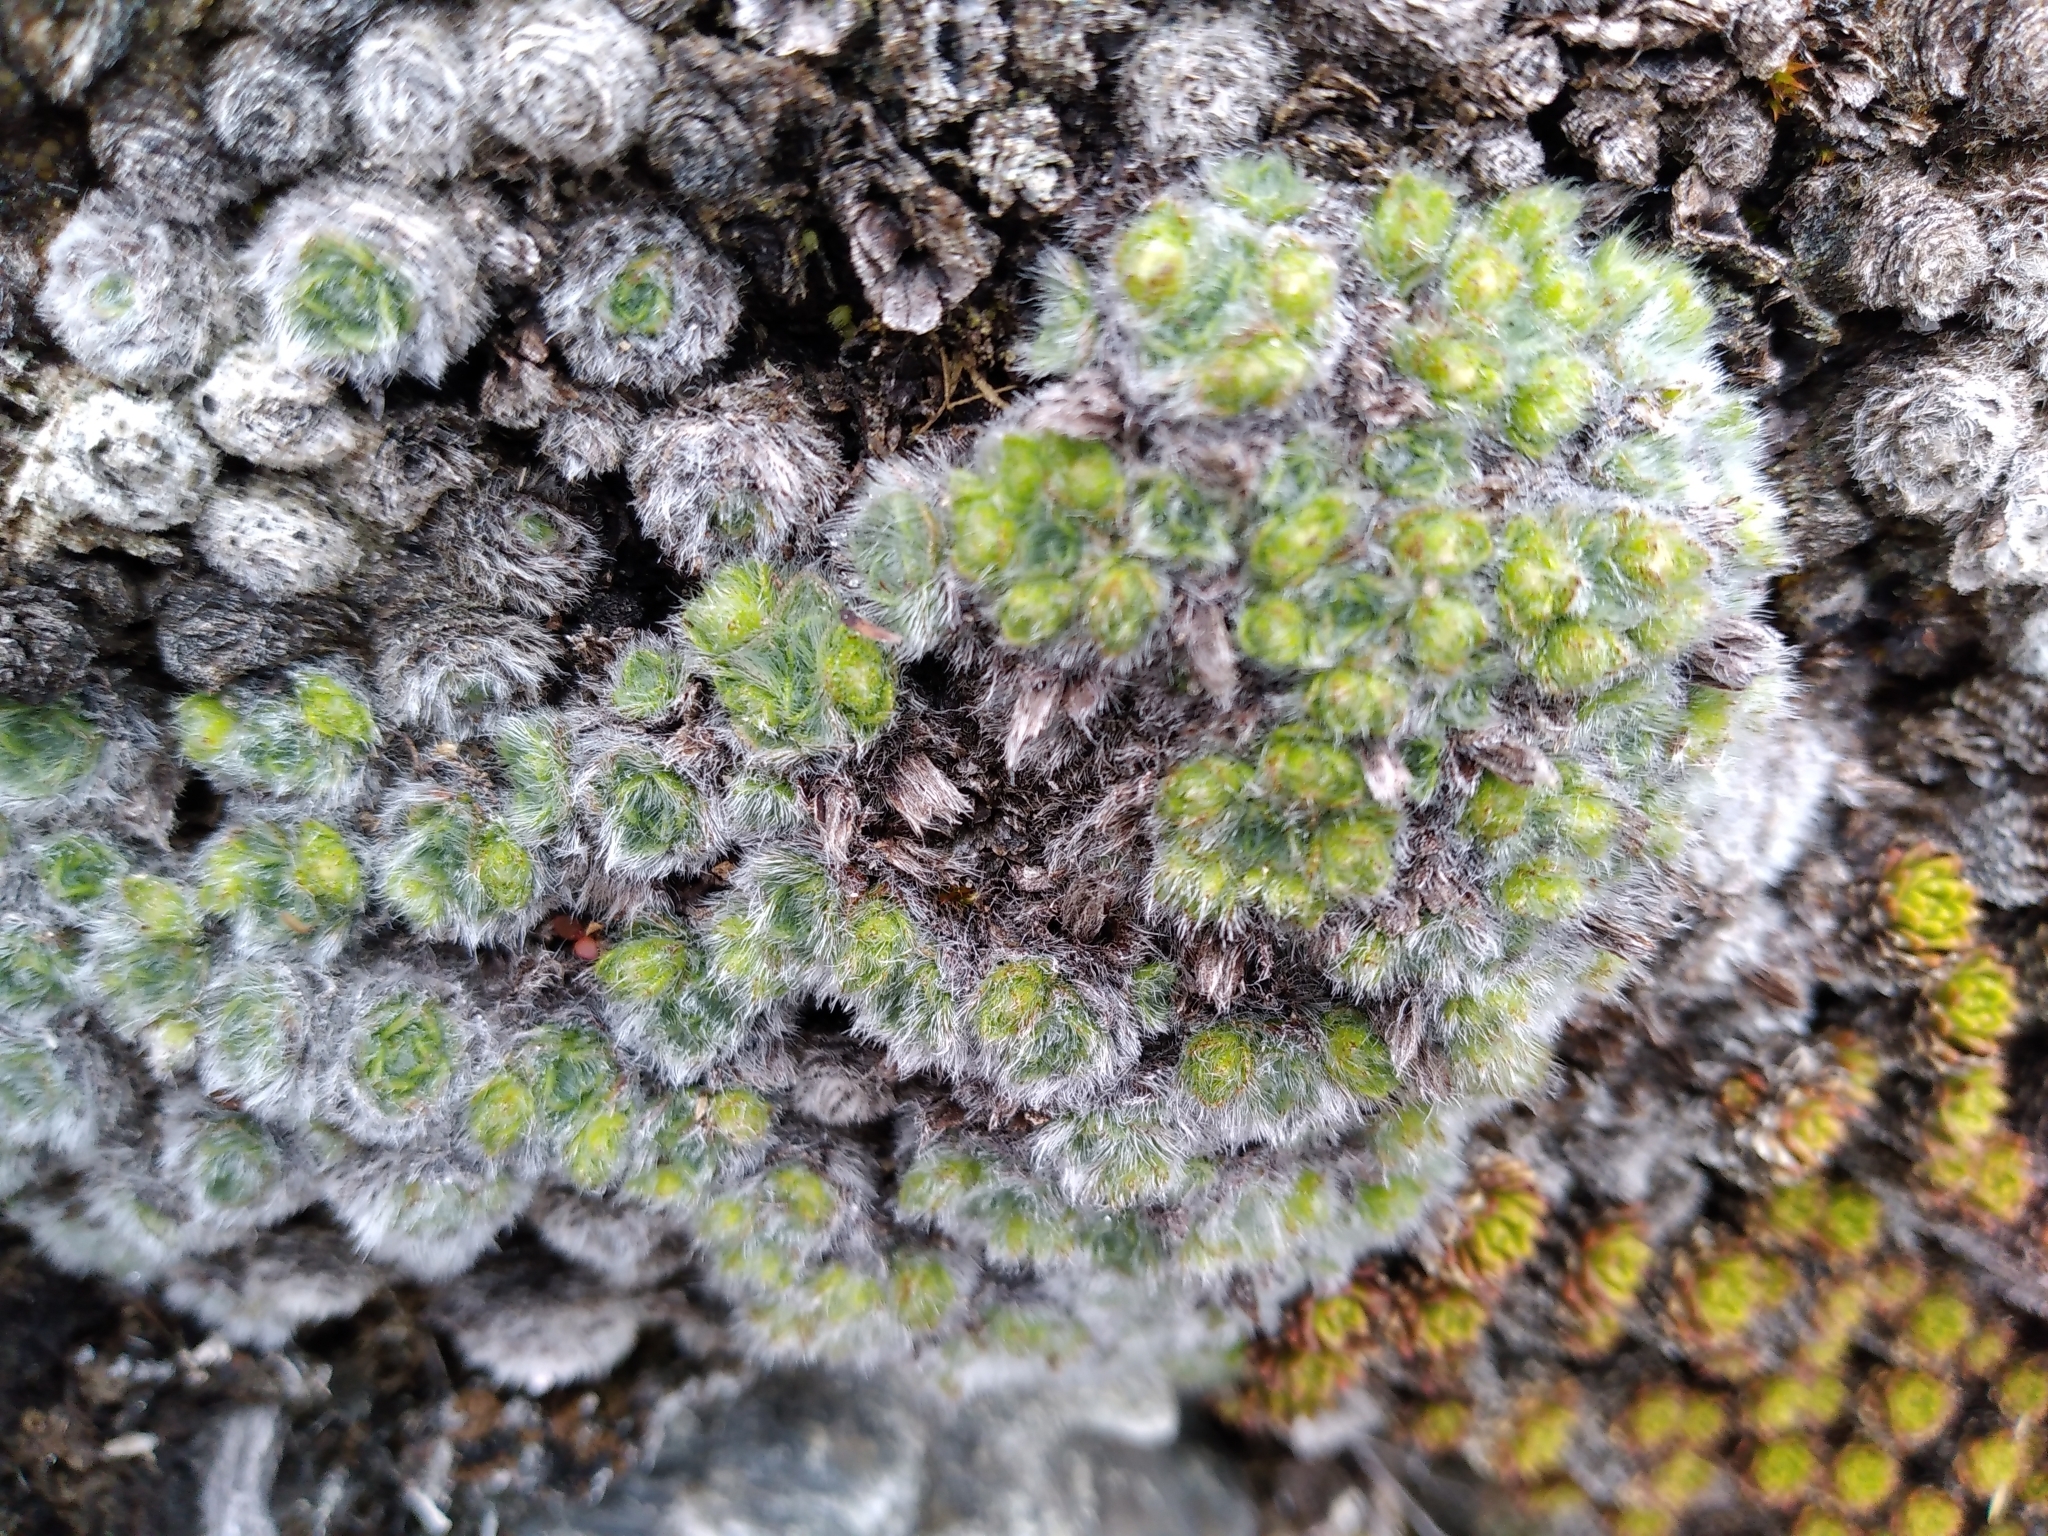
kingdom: Plantae
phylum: Tracheophyta
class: Magnoliopsida
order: Lamiales
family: Plantaginaceae
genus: Veronica
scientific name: Veronica thomsonii
